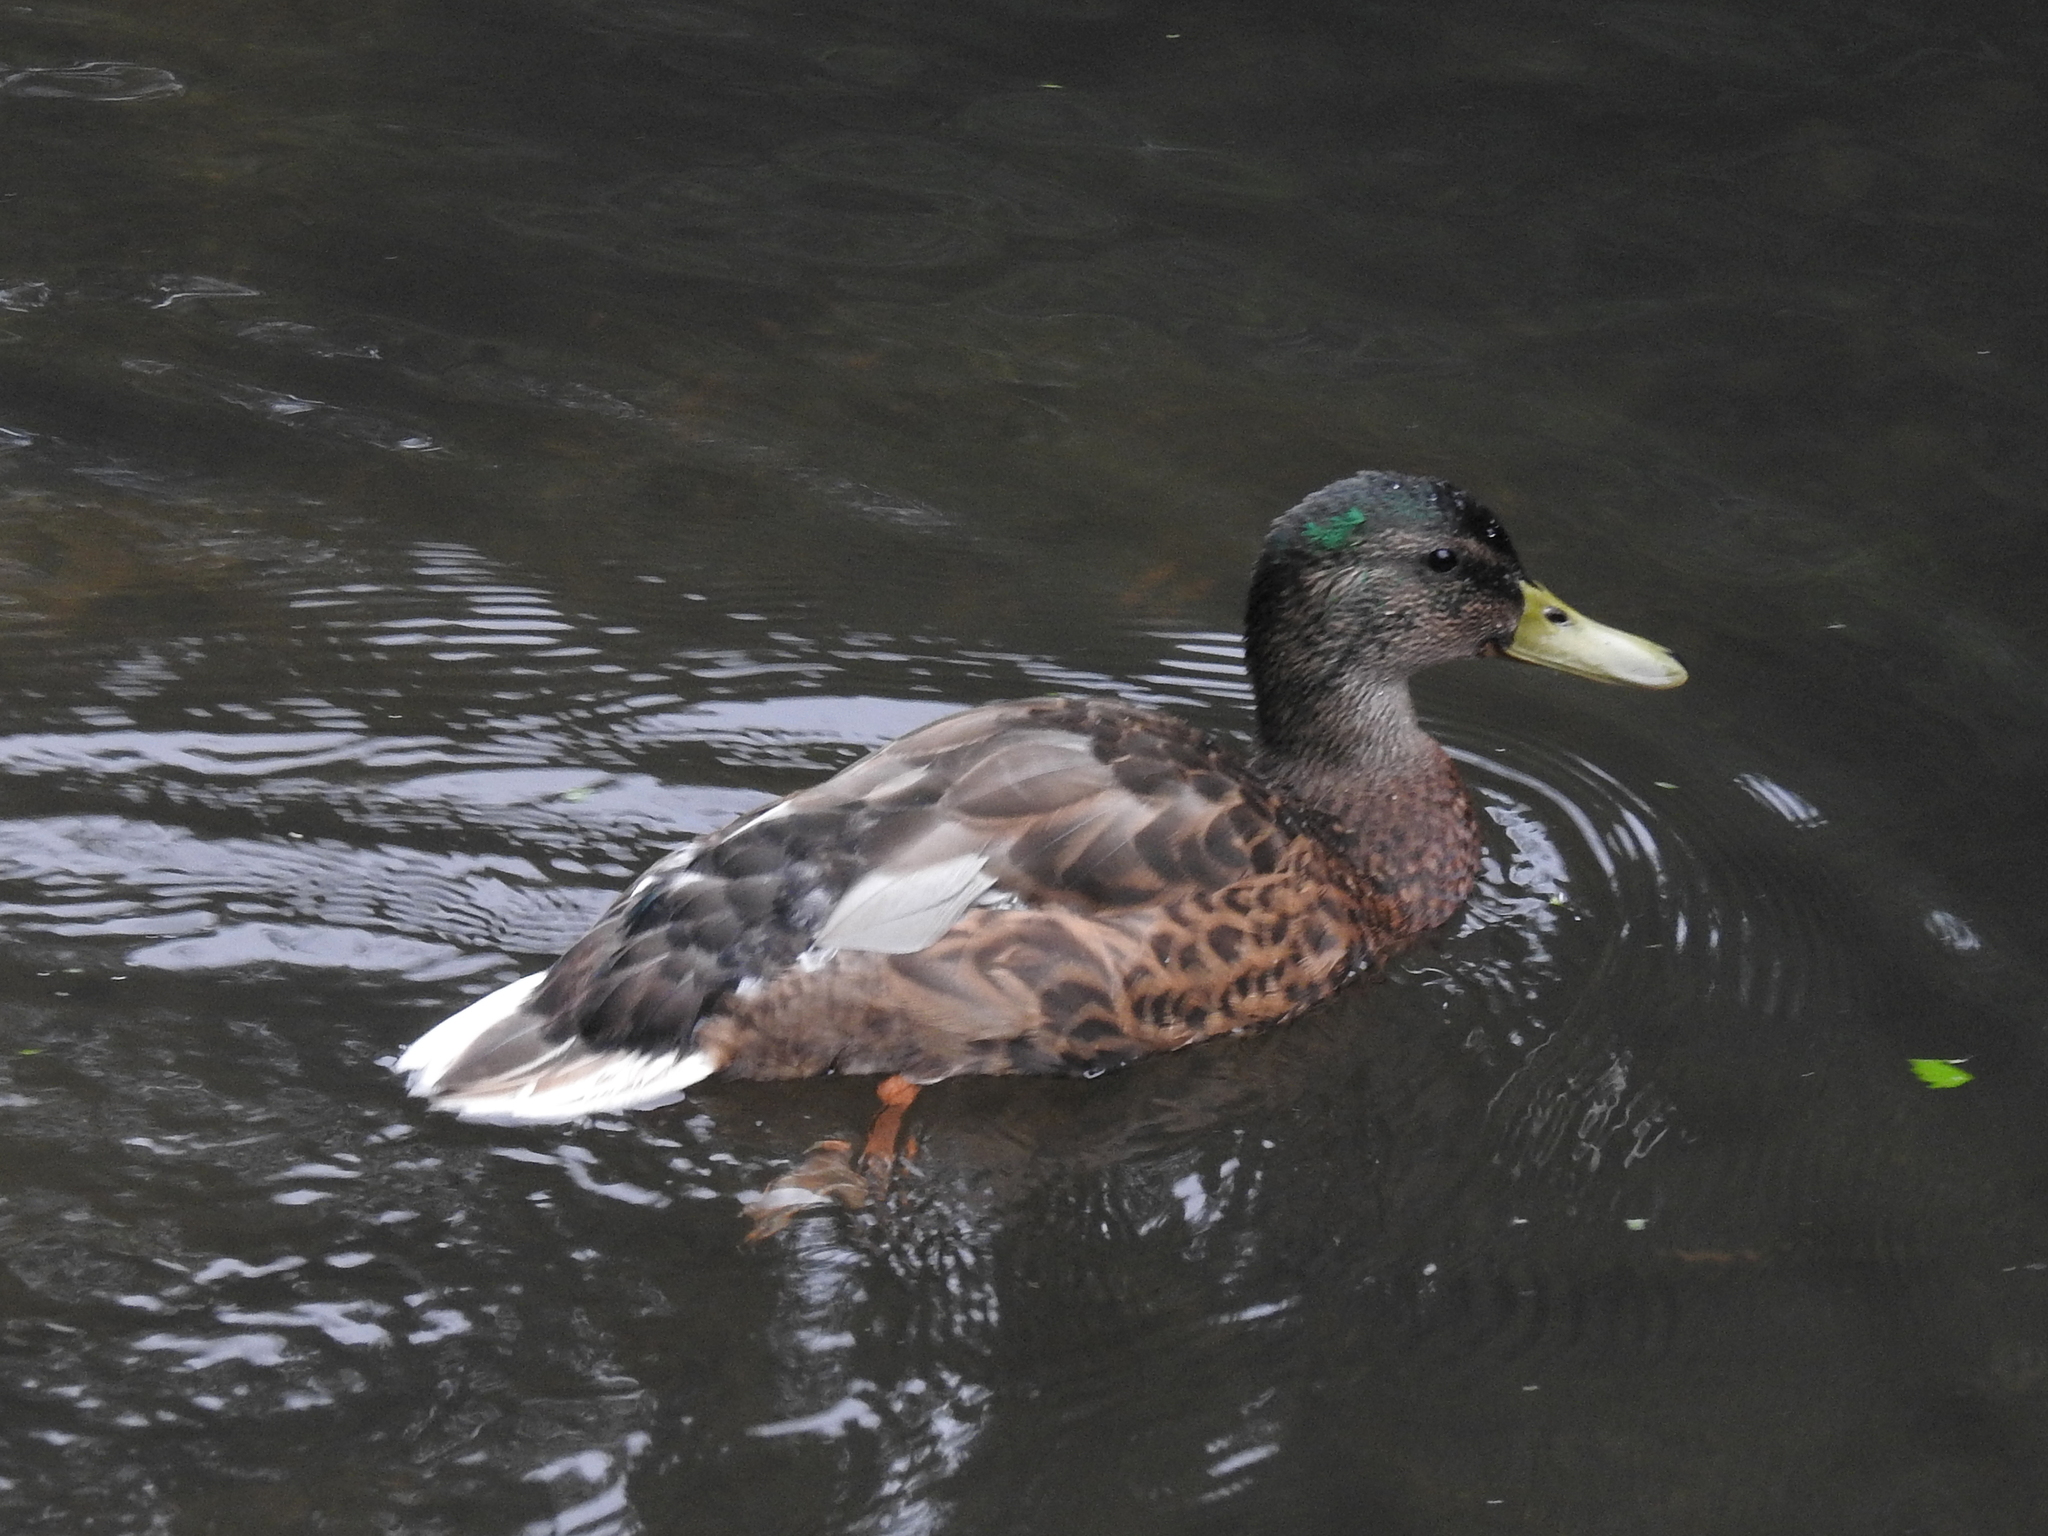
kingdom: Animalia
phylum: Chordata
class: Aves
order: Anseriformes
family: Anatidae
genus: Anas
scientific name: Anas platyrhynchos
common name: Mallard
